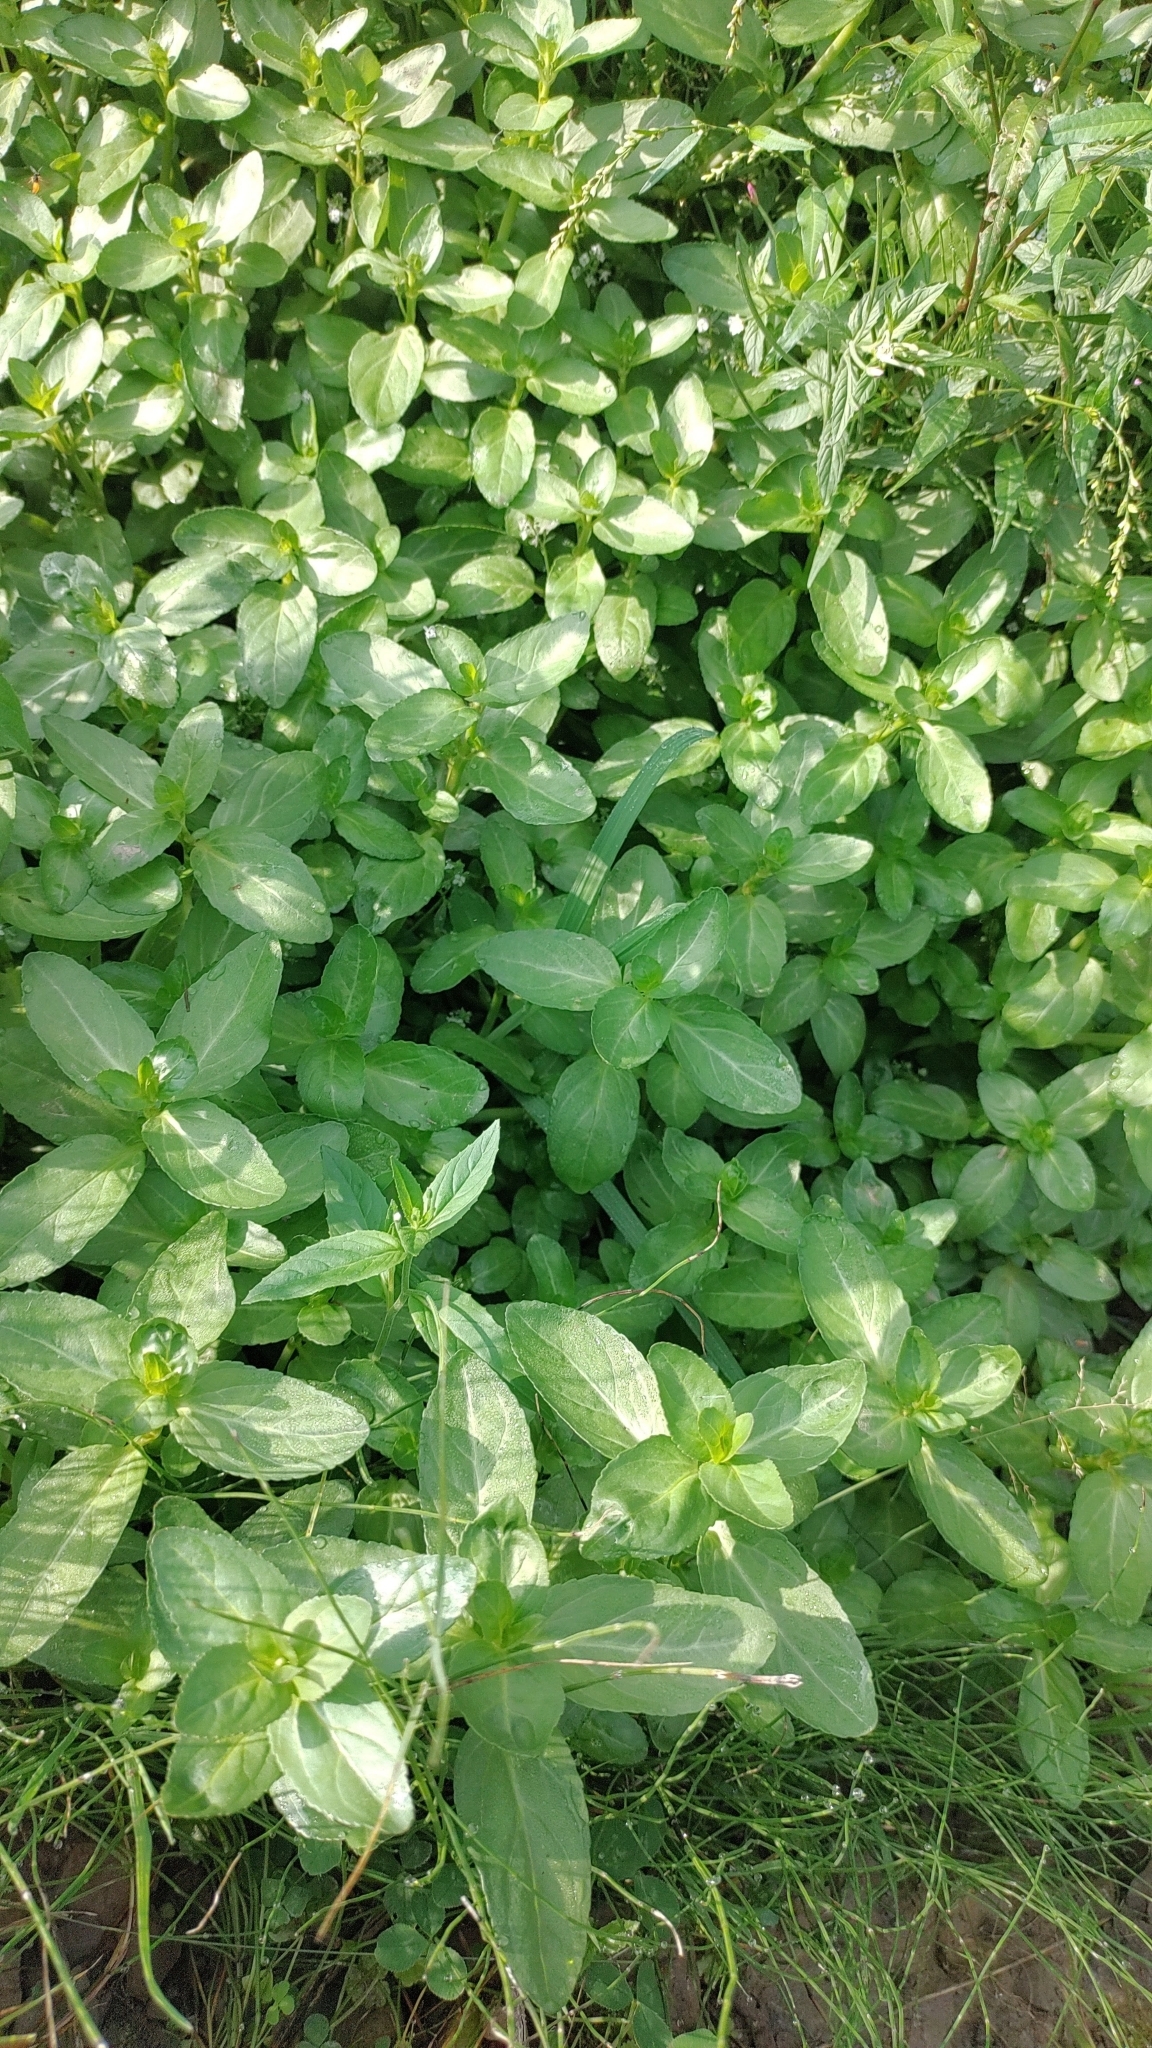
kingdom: Plantae
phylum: Tracheophyta
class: Magnoliopsida
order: Lamiales
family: Plantaginaceae
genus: Veronica
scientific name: Veronica beccabunga
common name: Brooklime
